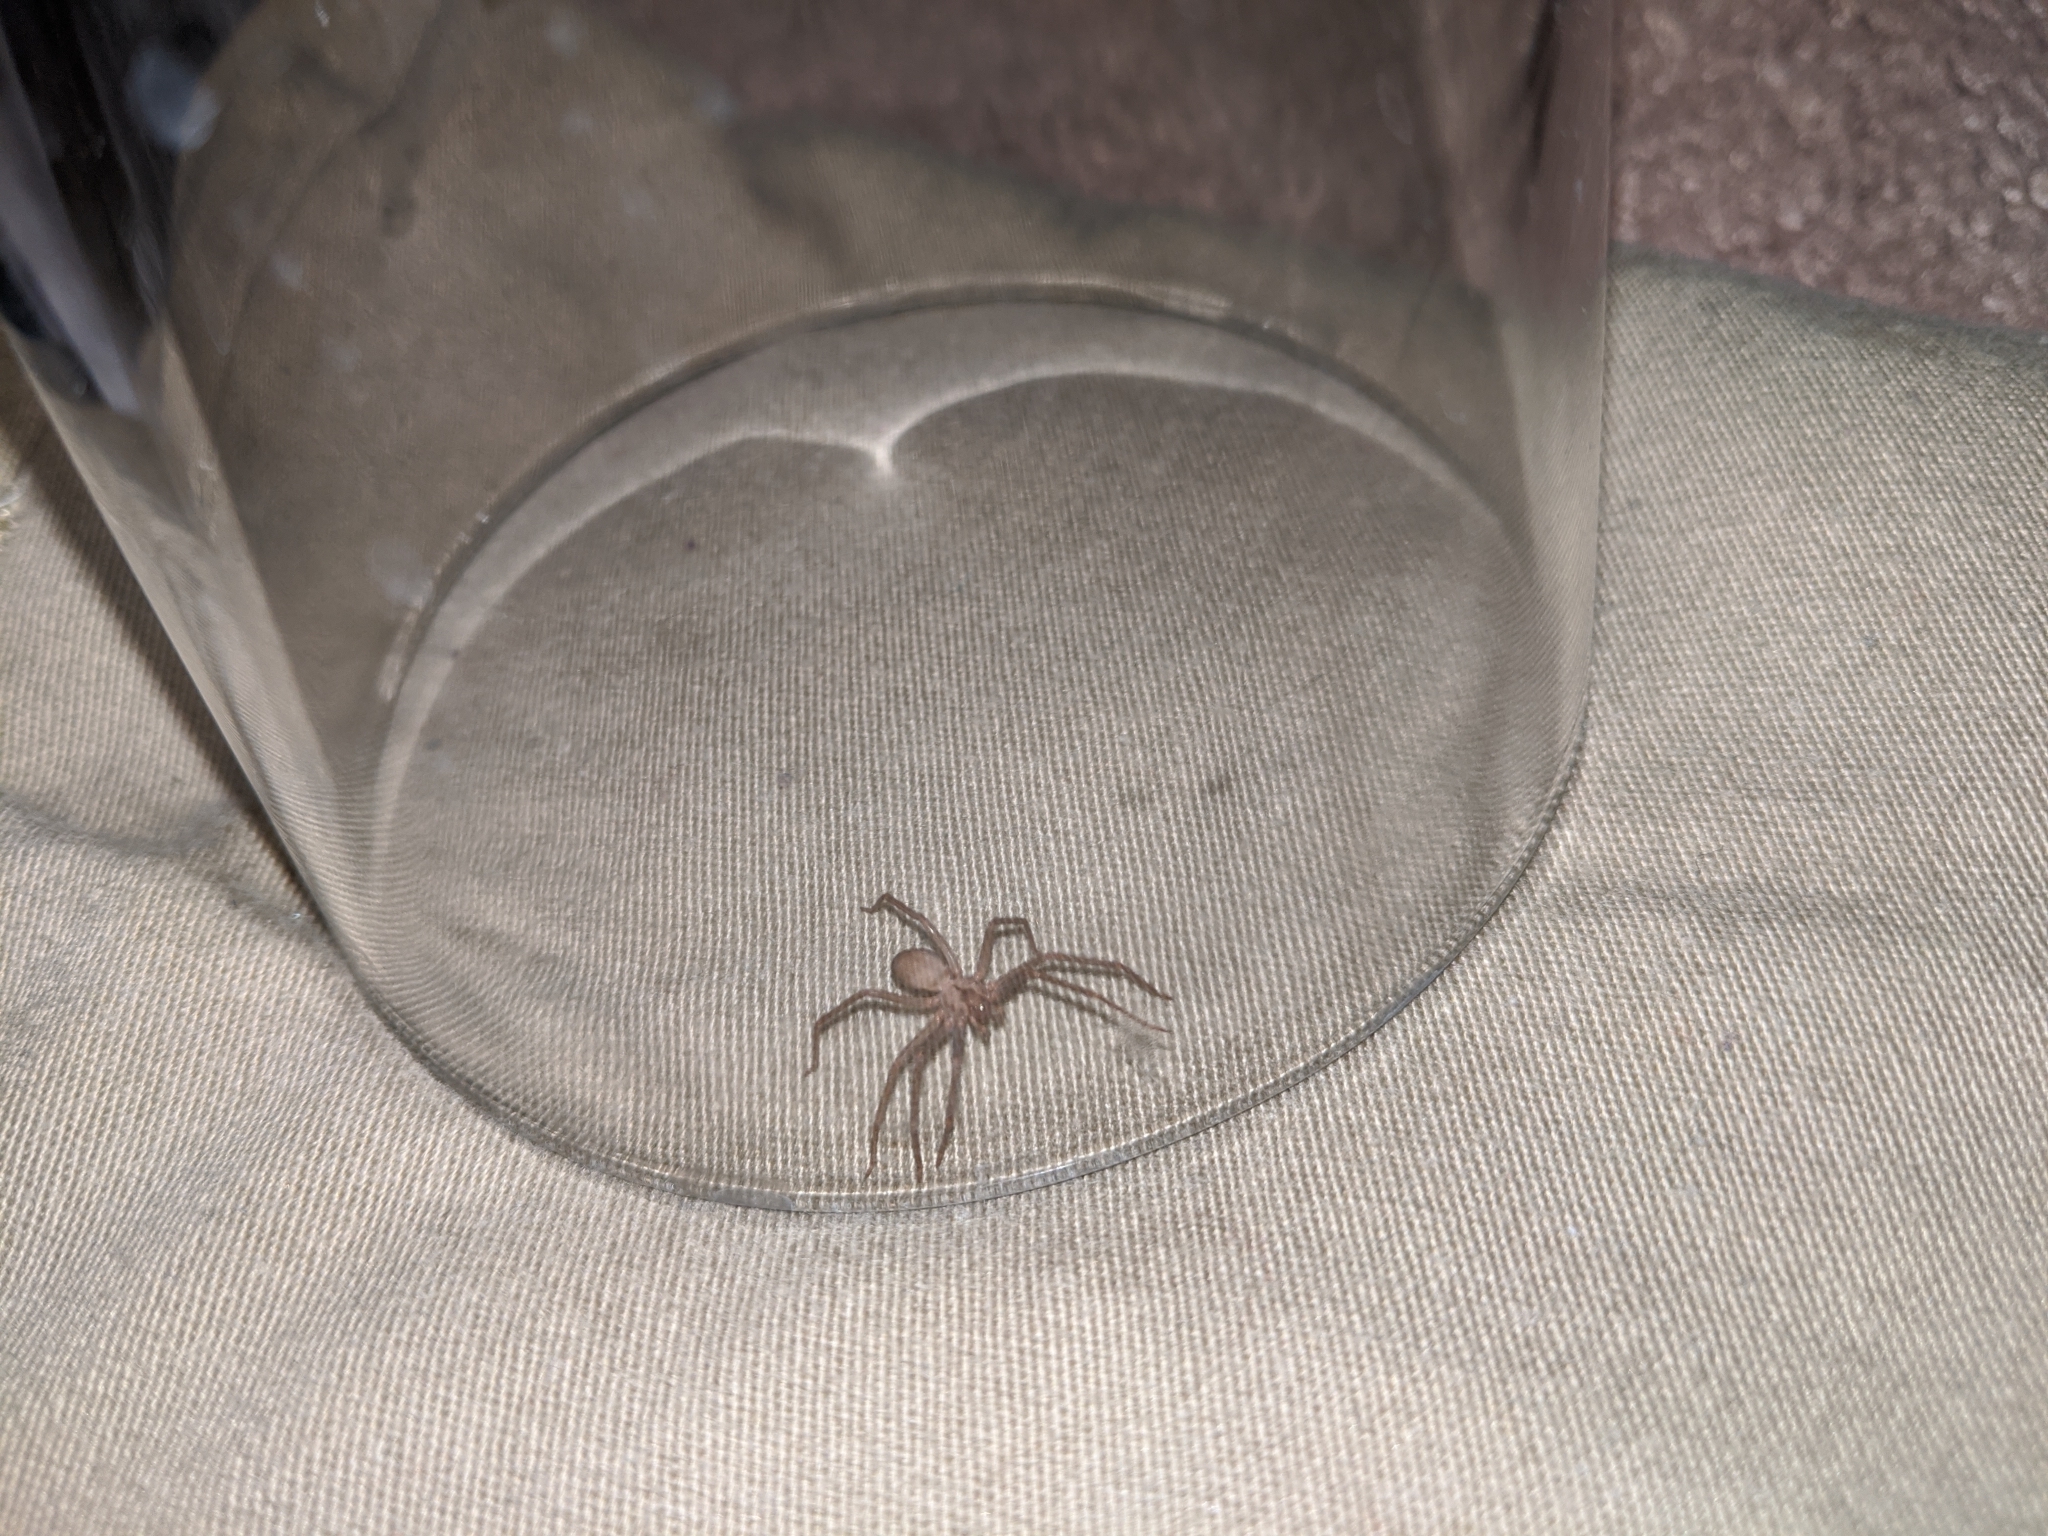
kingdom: Animalia
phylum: Arthropoda
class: Arachnida
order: Araneae
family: Sicariidae
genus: Loxosceles
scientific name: Loxosceles reclusa
